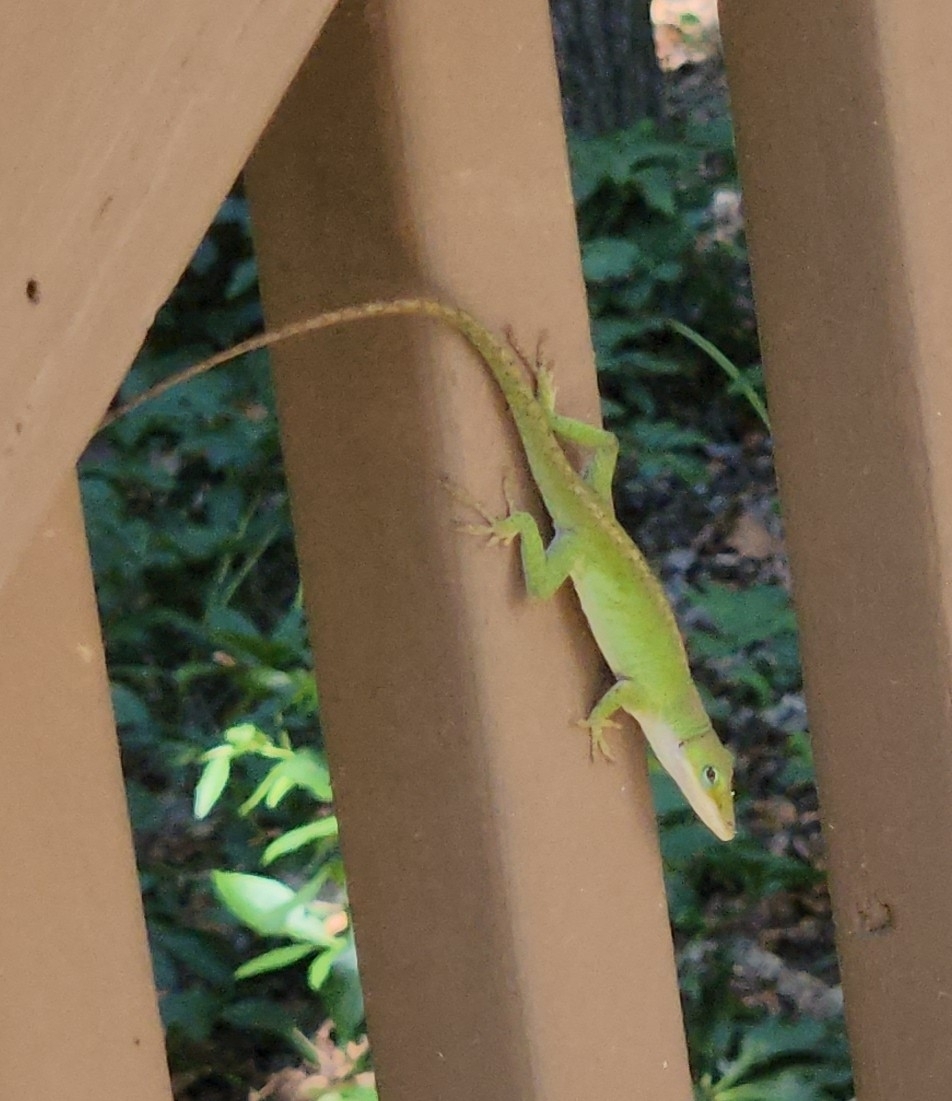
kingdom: Animalia
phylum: Chordata
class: Squamata
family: Dactyloidae
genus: Anolis
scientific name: Anolis carolinensis
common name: Green anole
